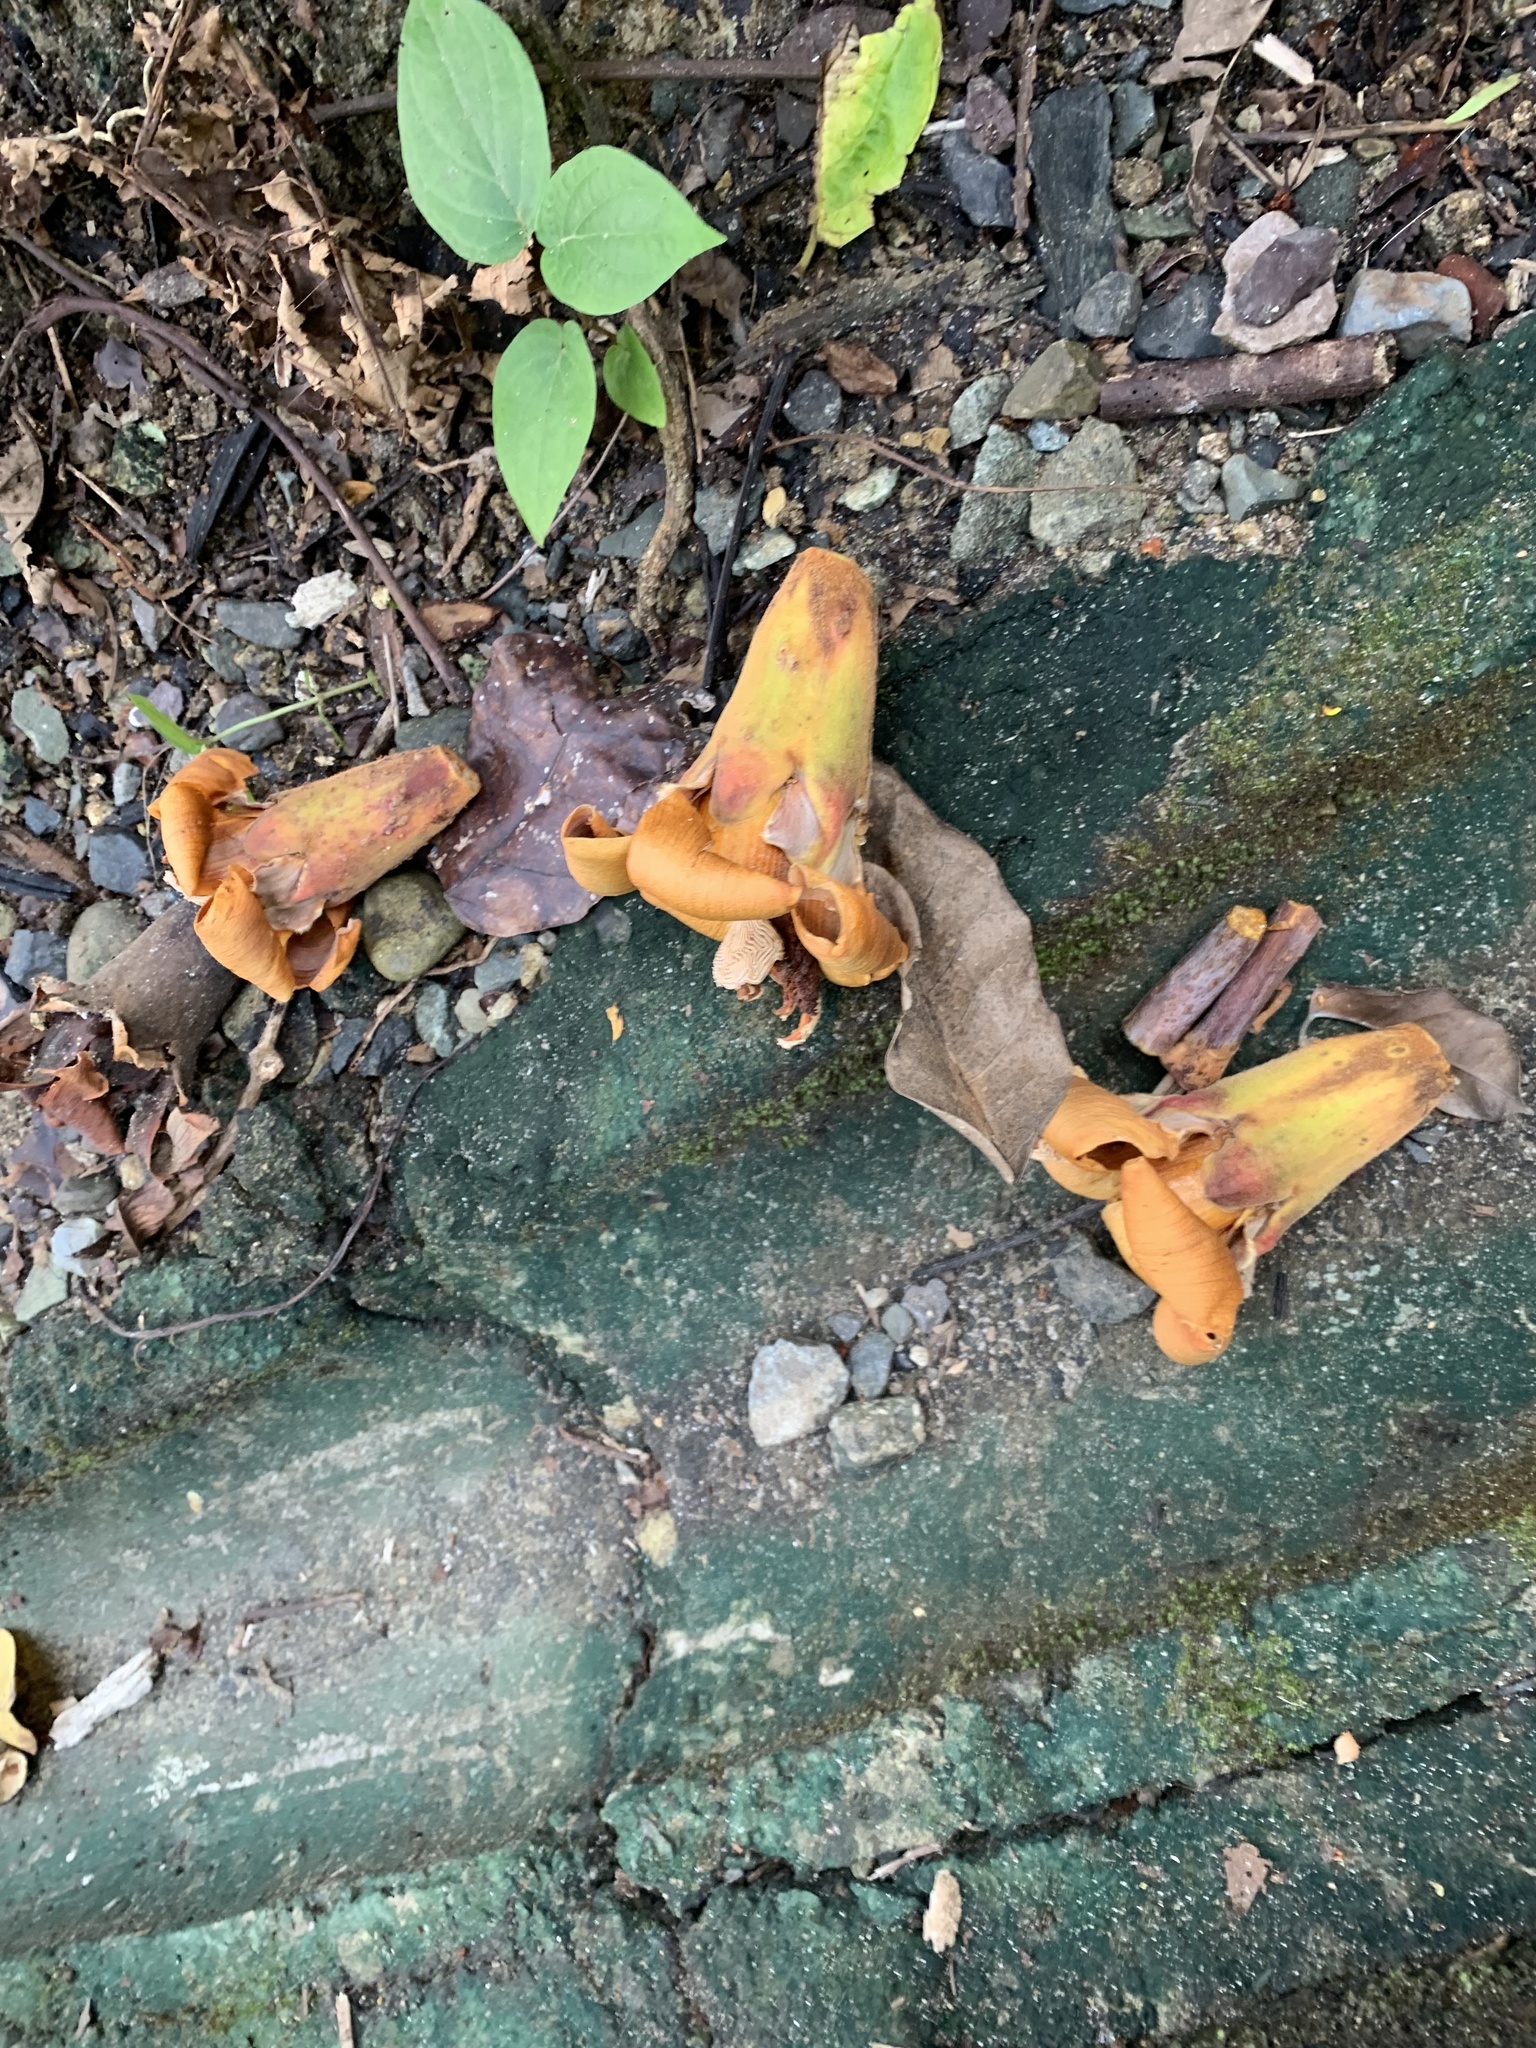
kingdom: Plantae
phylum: Tracheophyta
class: Magnoliopsida
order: Malvales
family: Malvaceae
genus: Ochroma
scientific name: Ochroma pyramidale
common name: Balsa
